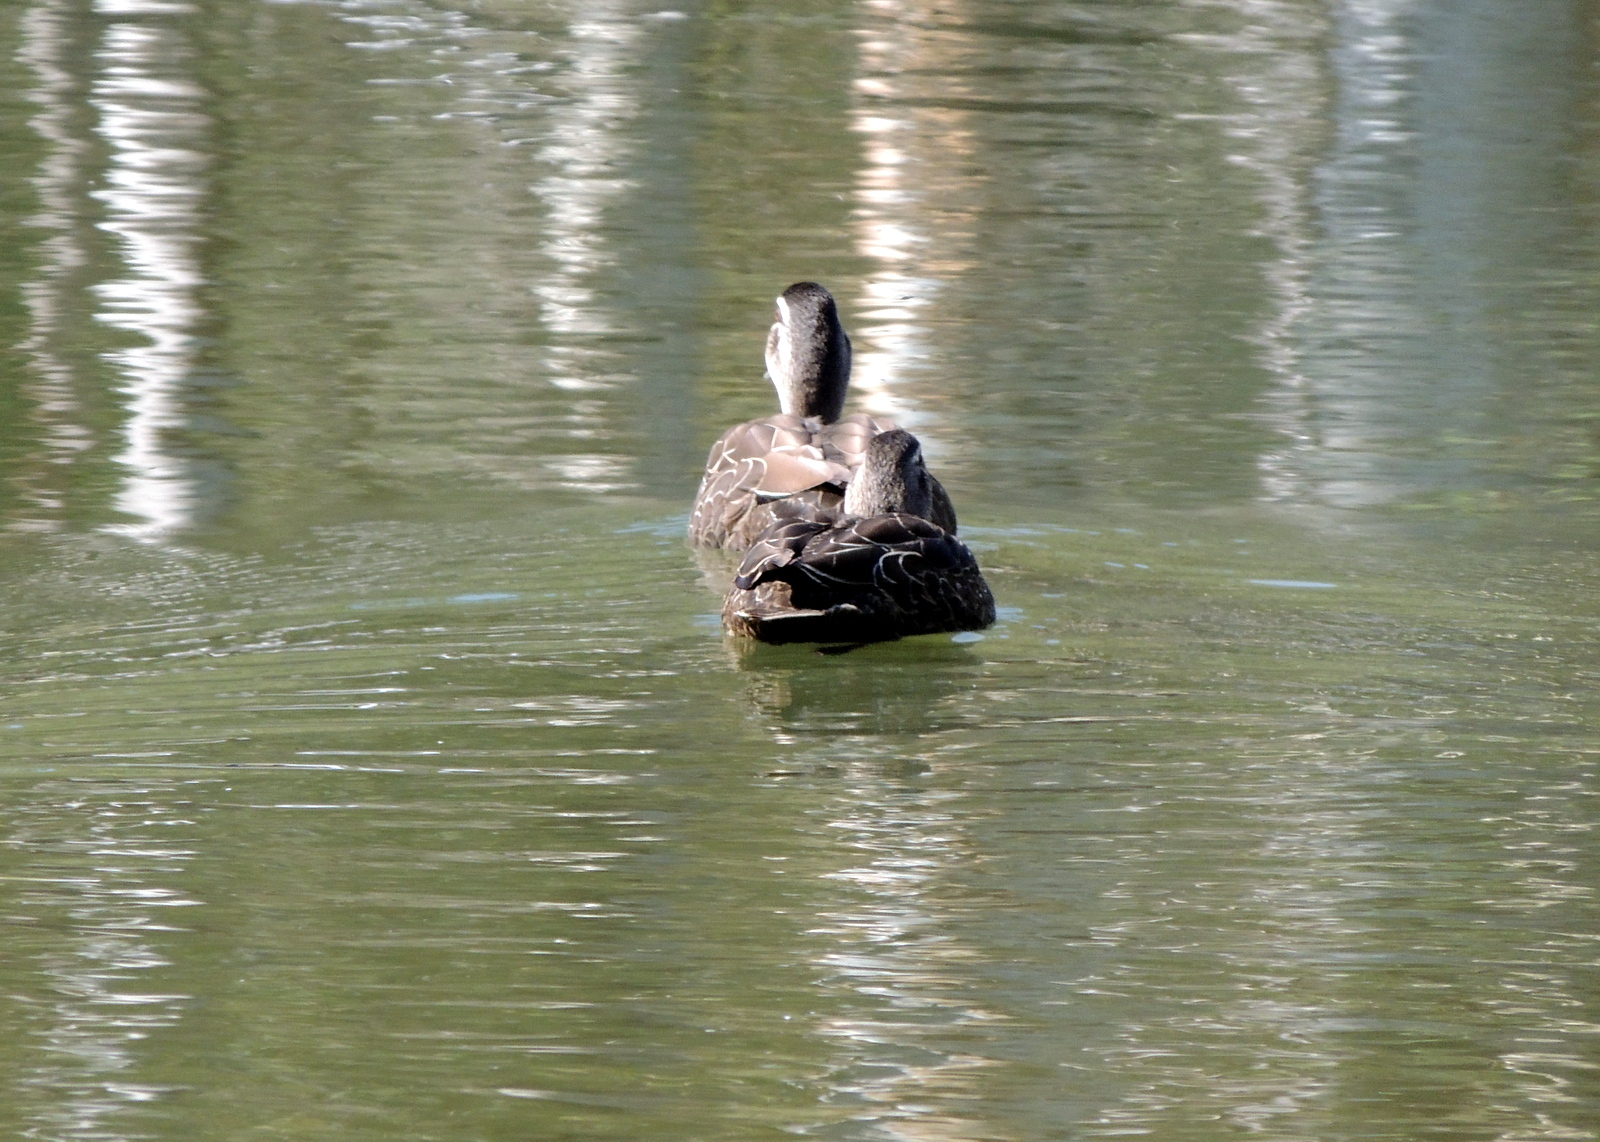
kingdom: Animalia
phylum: Chordata
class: Aves
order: Anseriformes
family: Anatidae
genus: Anas
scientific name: Anas superciliosa
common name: Pacific black duck
